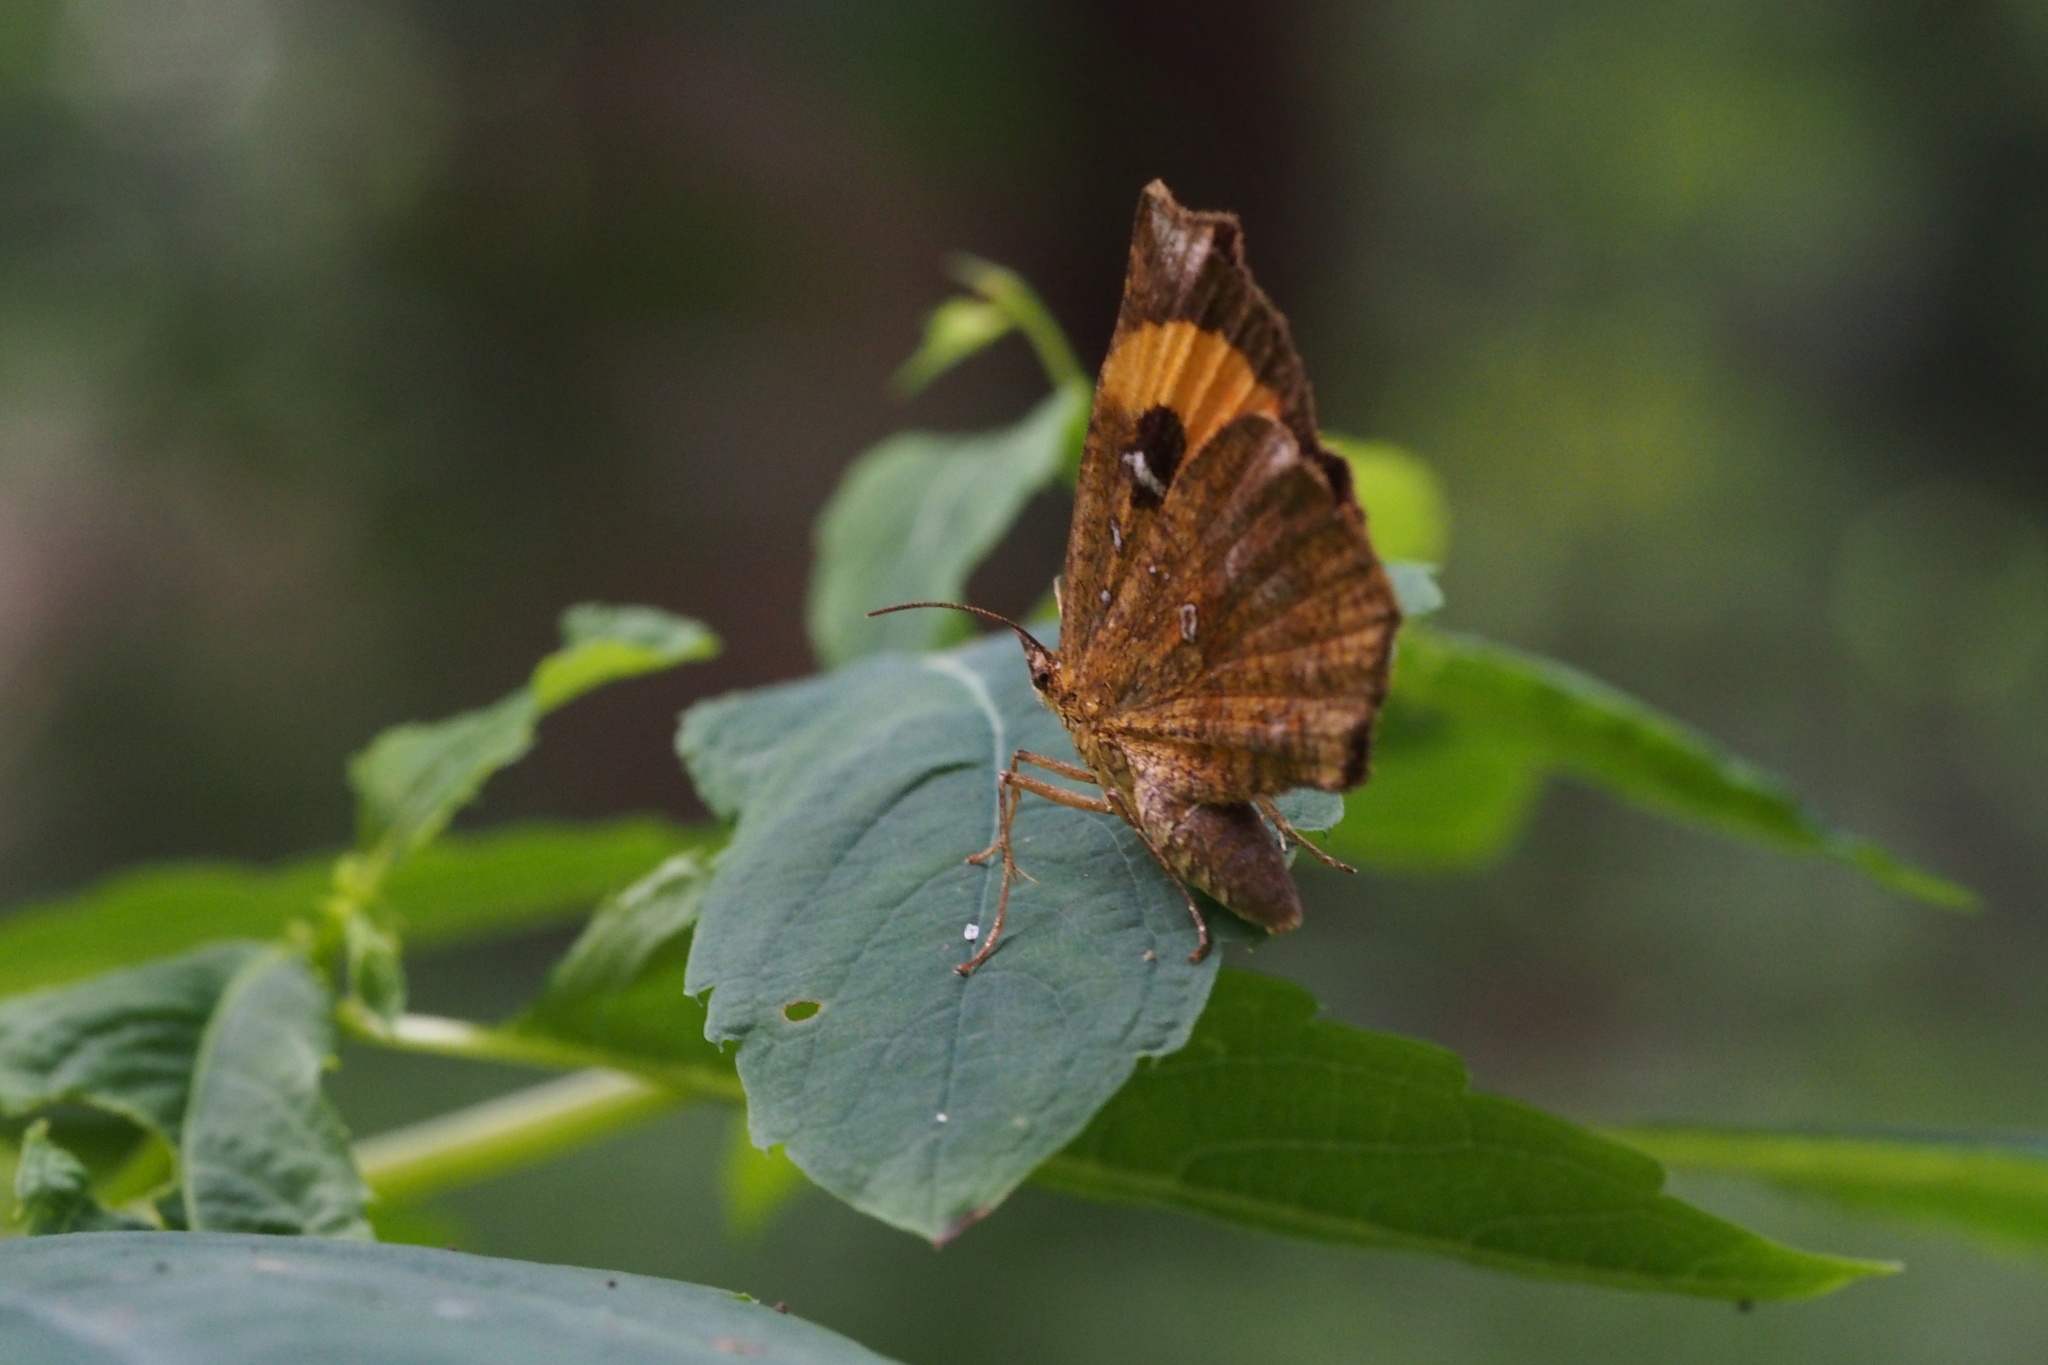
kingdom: Animalia
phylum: Arthropoda
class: Insecta
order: Lepidoptera
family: Callidulidae
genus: Pterodecta
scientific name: Pterodecta felderi
